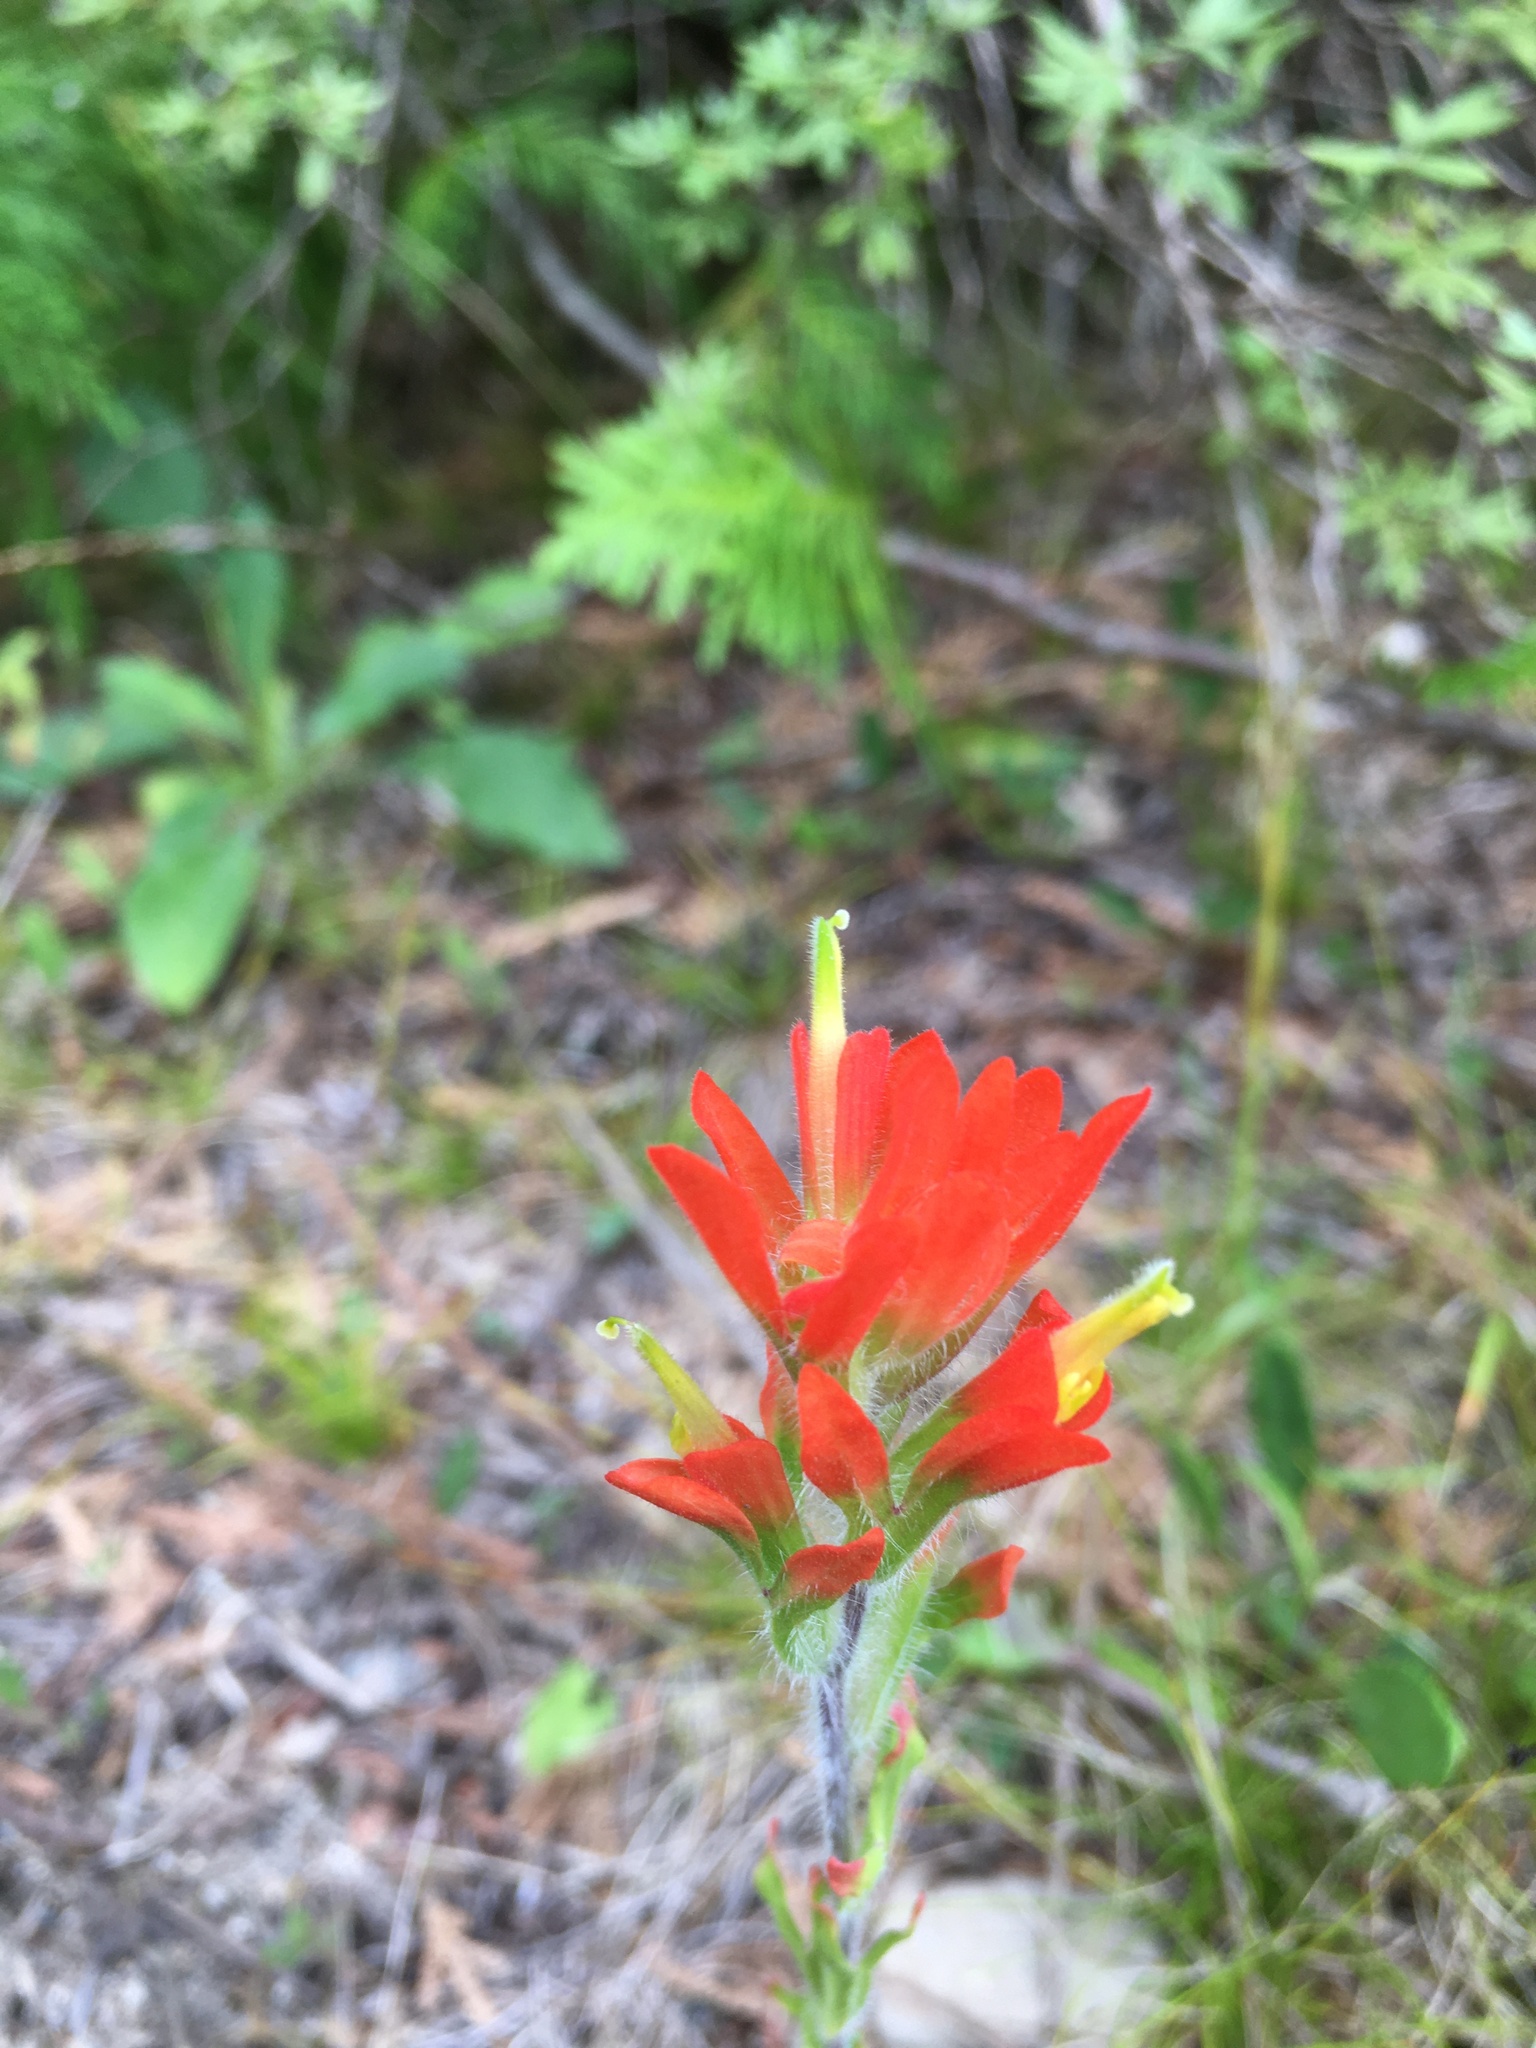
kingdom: Plantae
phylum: Tracheophyta
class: Magnoliopsida
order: Lamiales
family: Orobanchaceae
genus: Castilleja
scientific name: Castilleja coccinea
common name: Scarlet paintbrush
